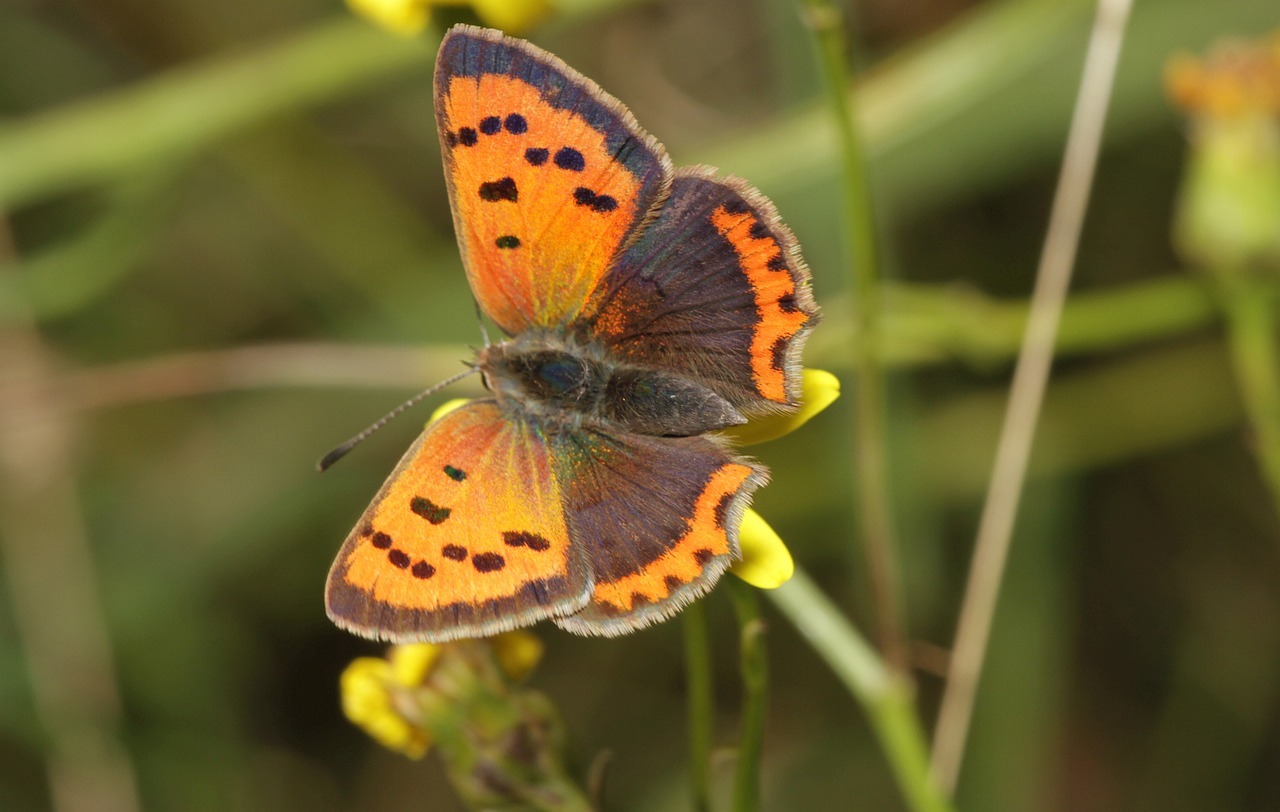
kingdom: Animalia
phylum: Arthropoda
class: Insecta
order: Lepidoptera
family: Lycaenidae
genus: Lycaena
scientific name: Lycaena phlaeas
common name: Small copper
